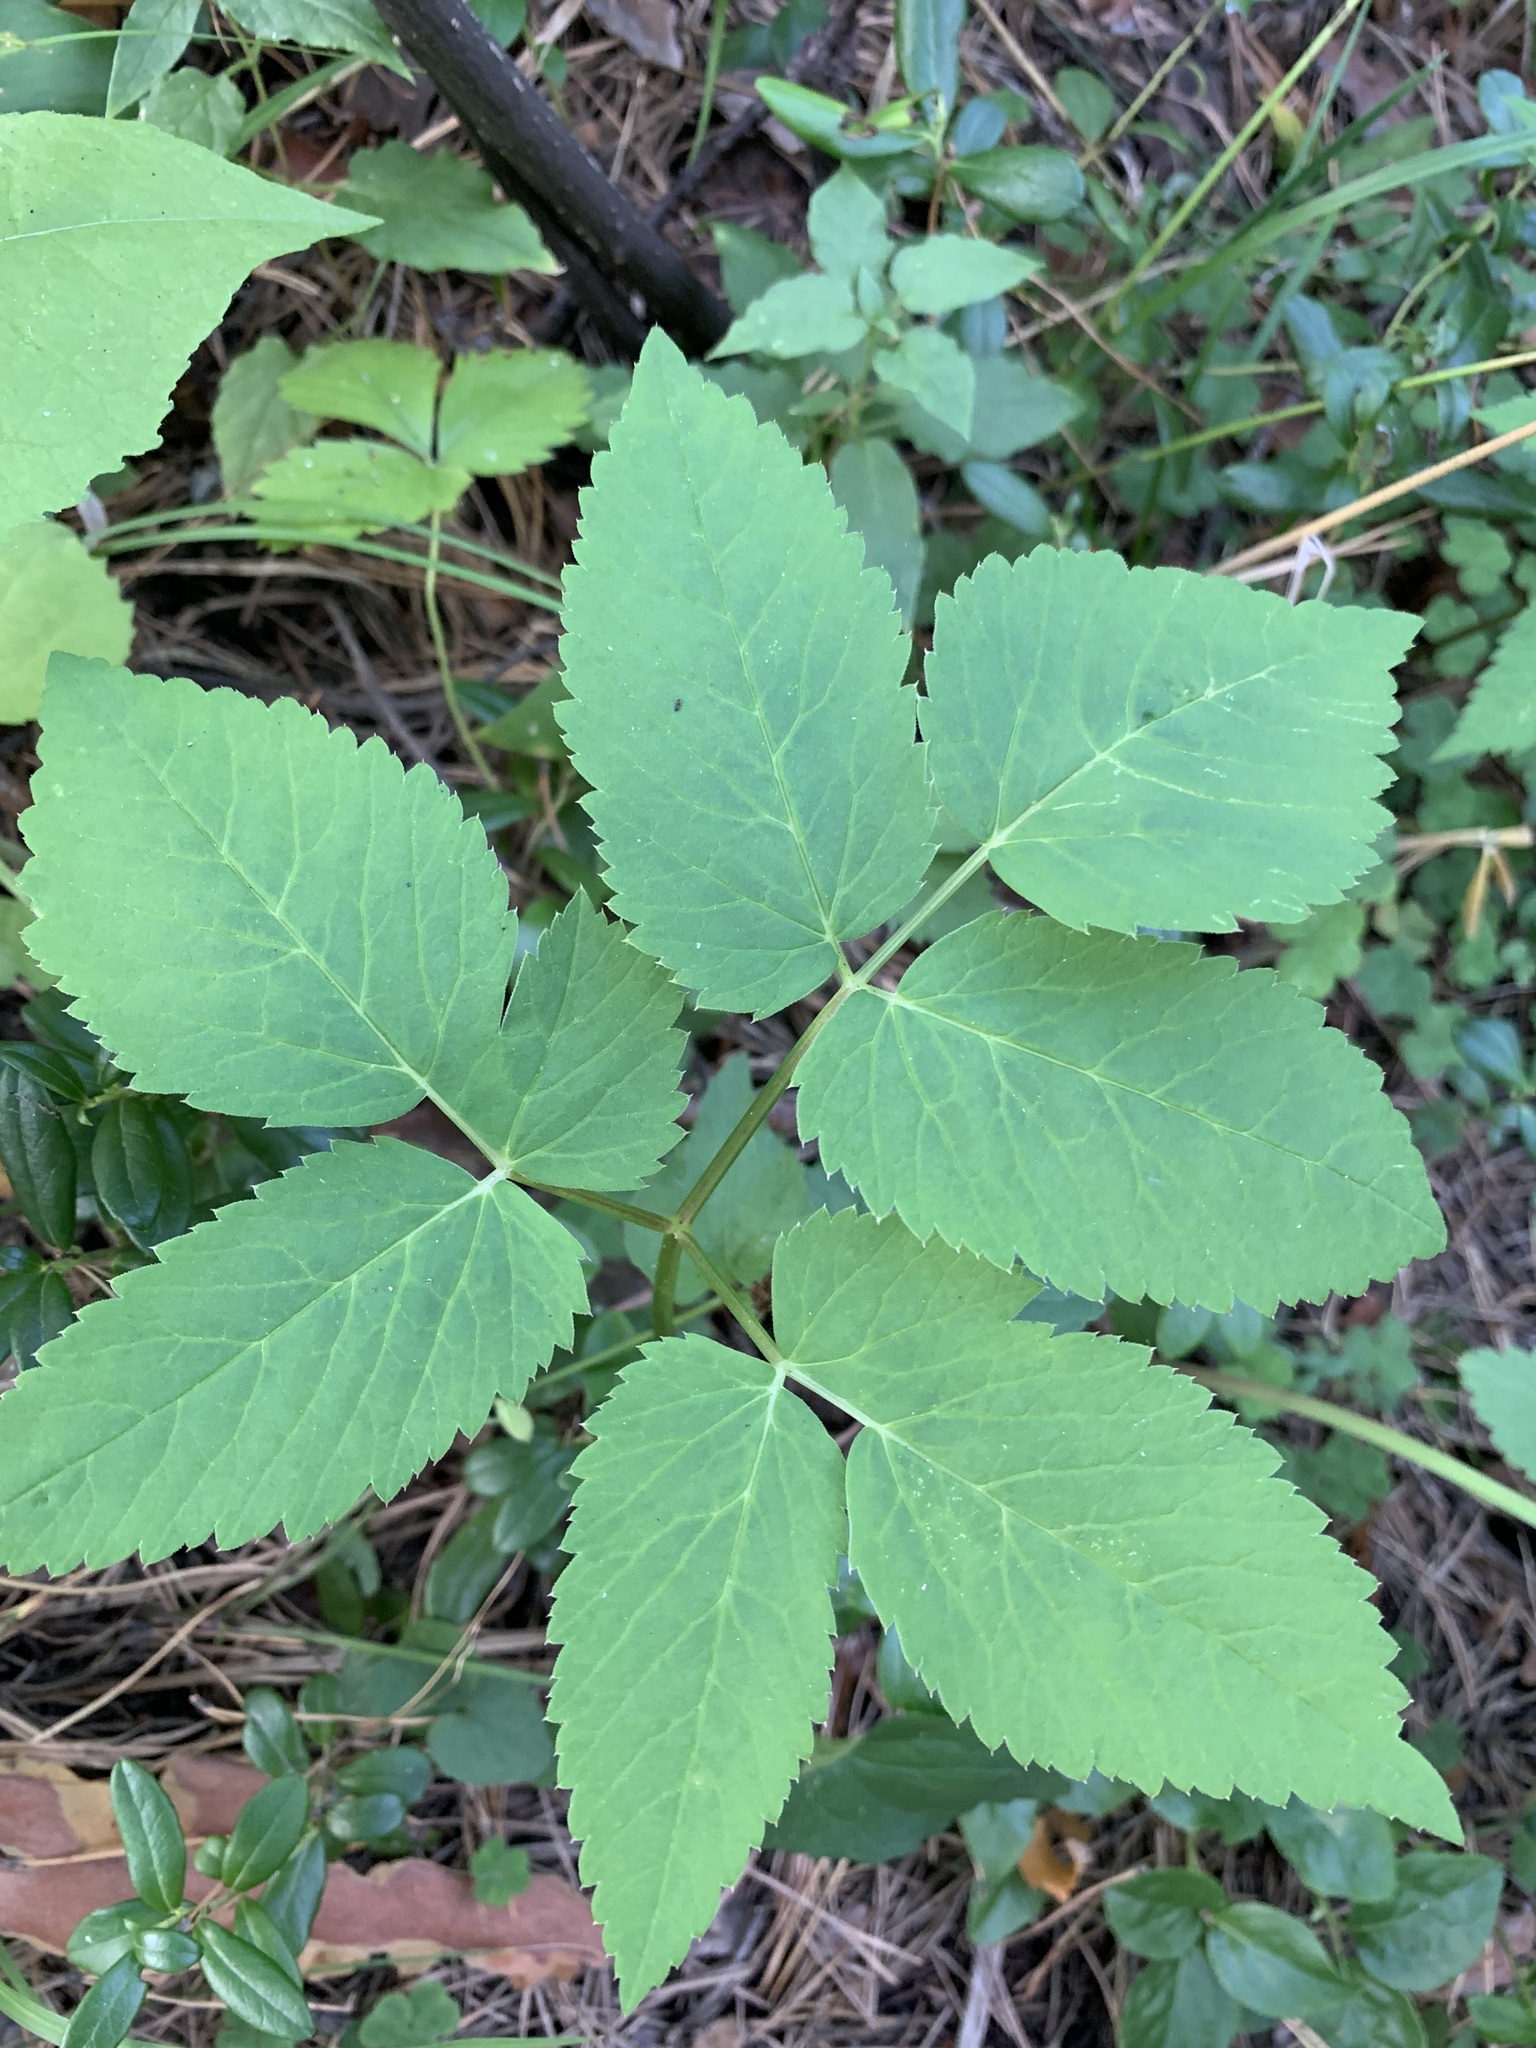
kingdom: Plantae
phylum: Tracheophyta
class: Magnoliopsida
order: Apiales
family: Apiaceae
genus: Aegopodium
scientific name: Aegopodium podagraria
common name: Ground-elder
